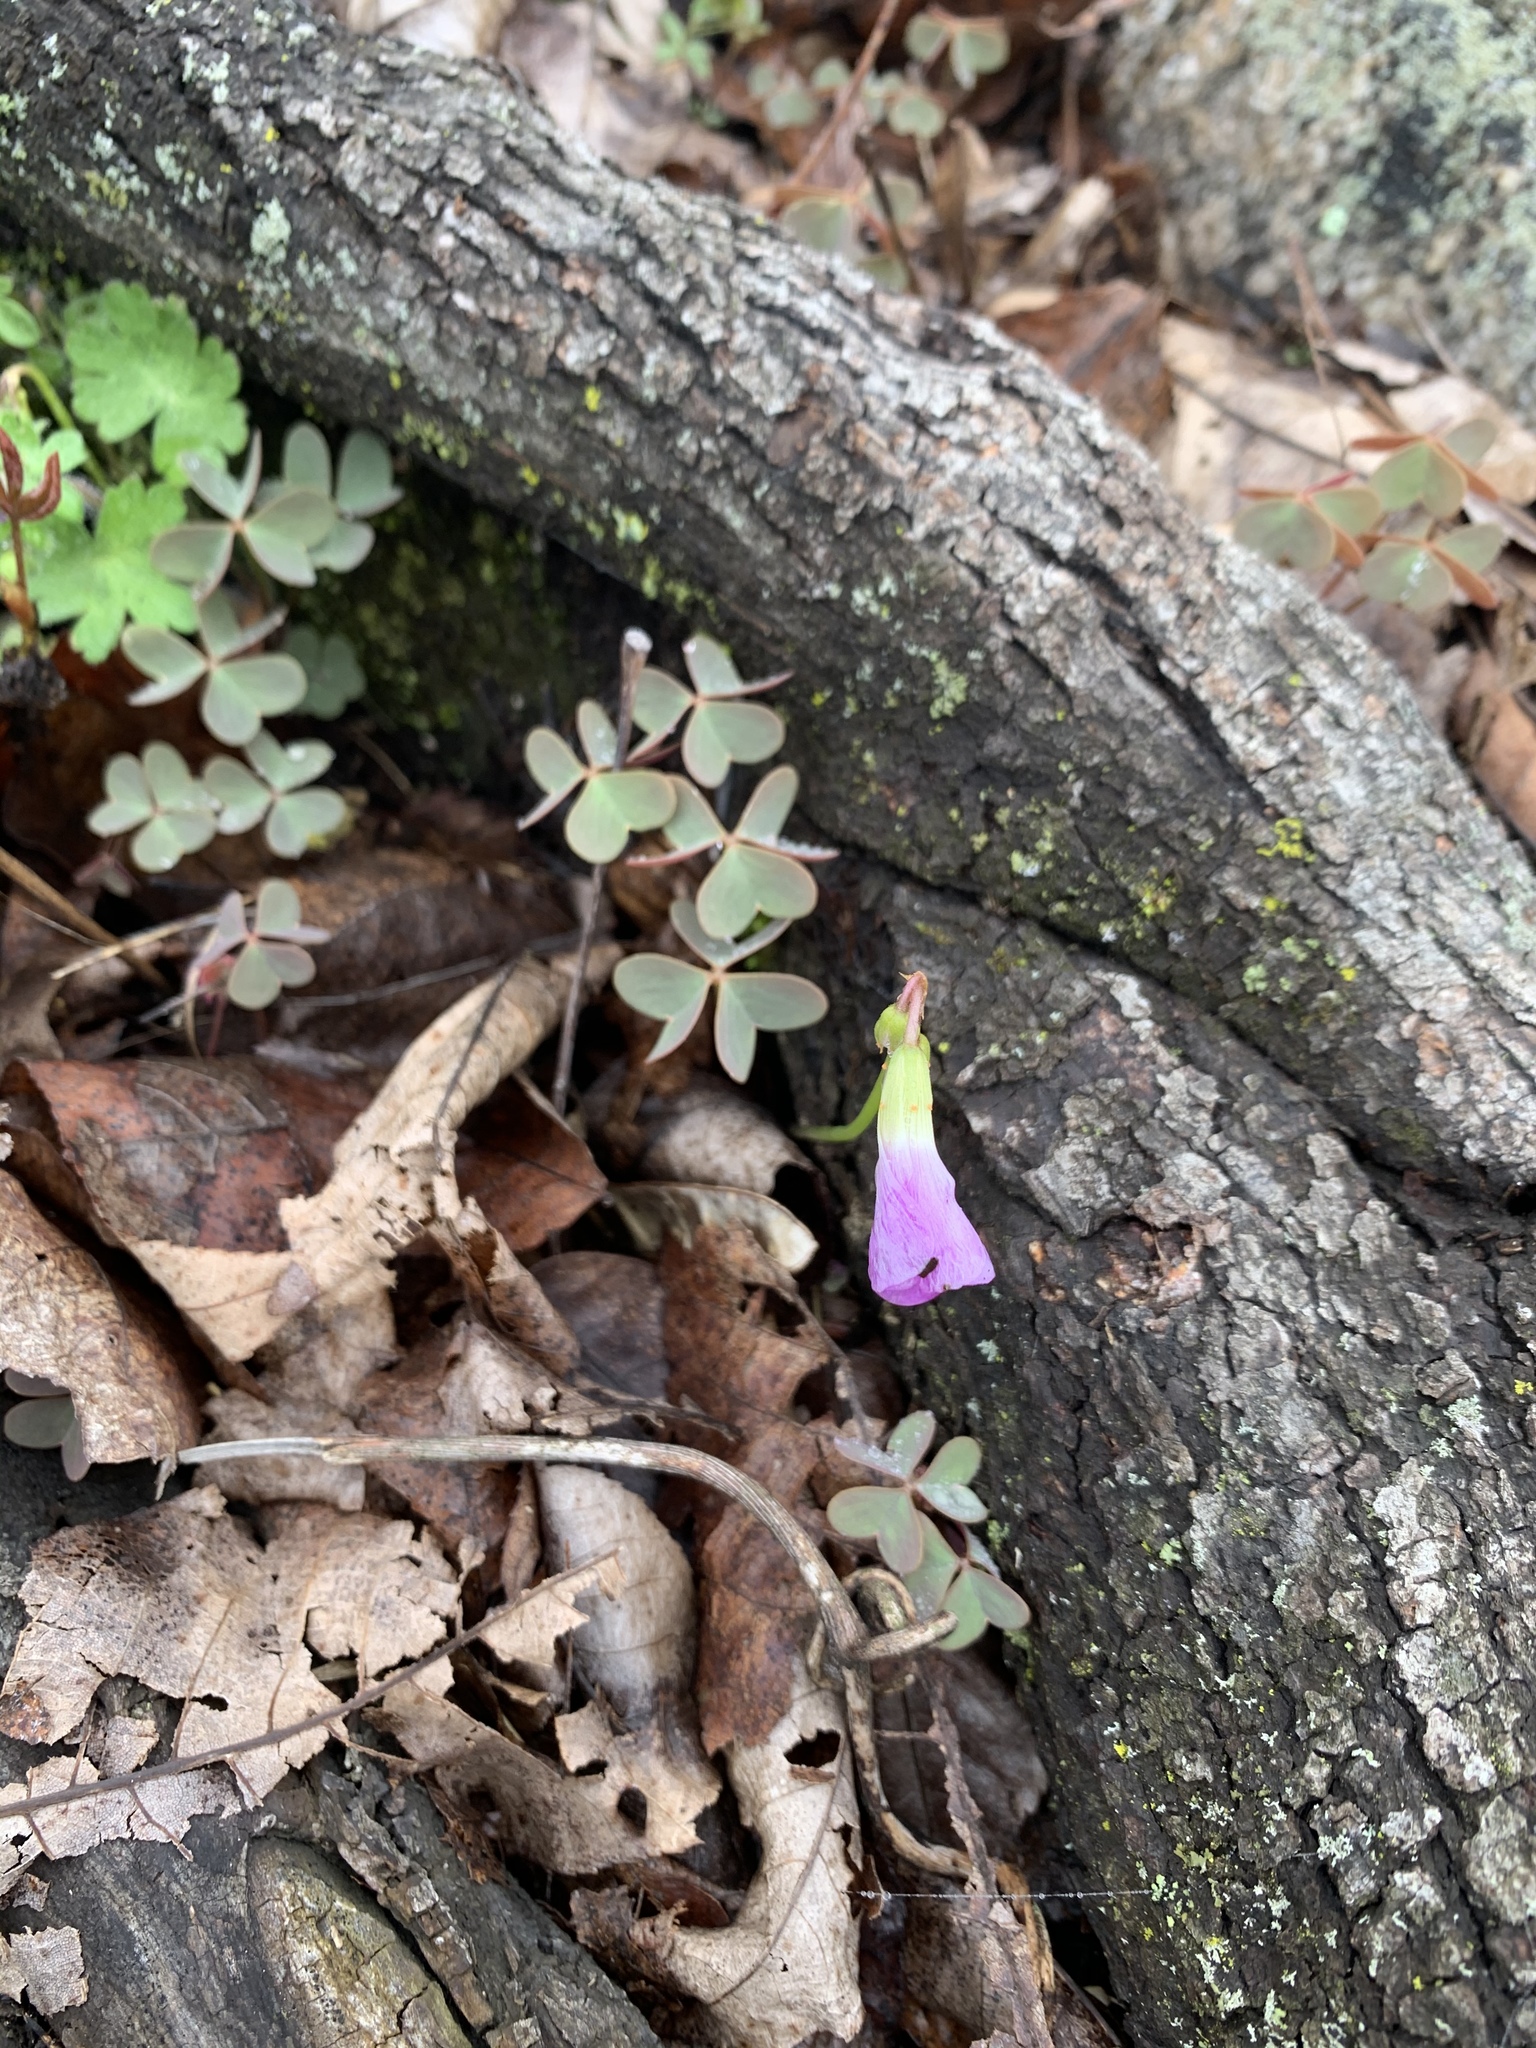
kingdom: Plantae
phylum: Tracheophyta
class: Magnoliopsida
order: Oxalidales
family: Oxalidaceae
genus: Oxalis
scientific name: Oxalis violacea
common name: Violet wood-sorrel
